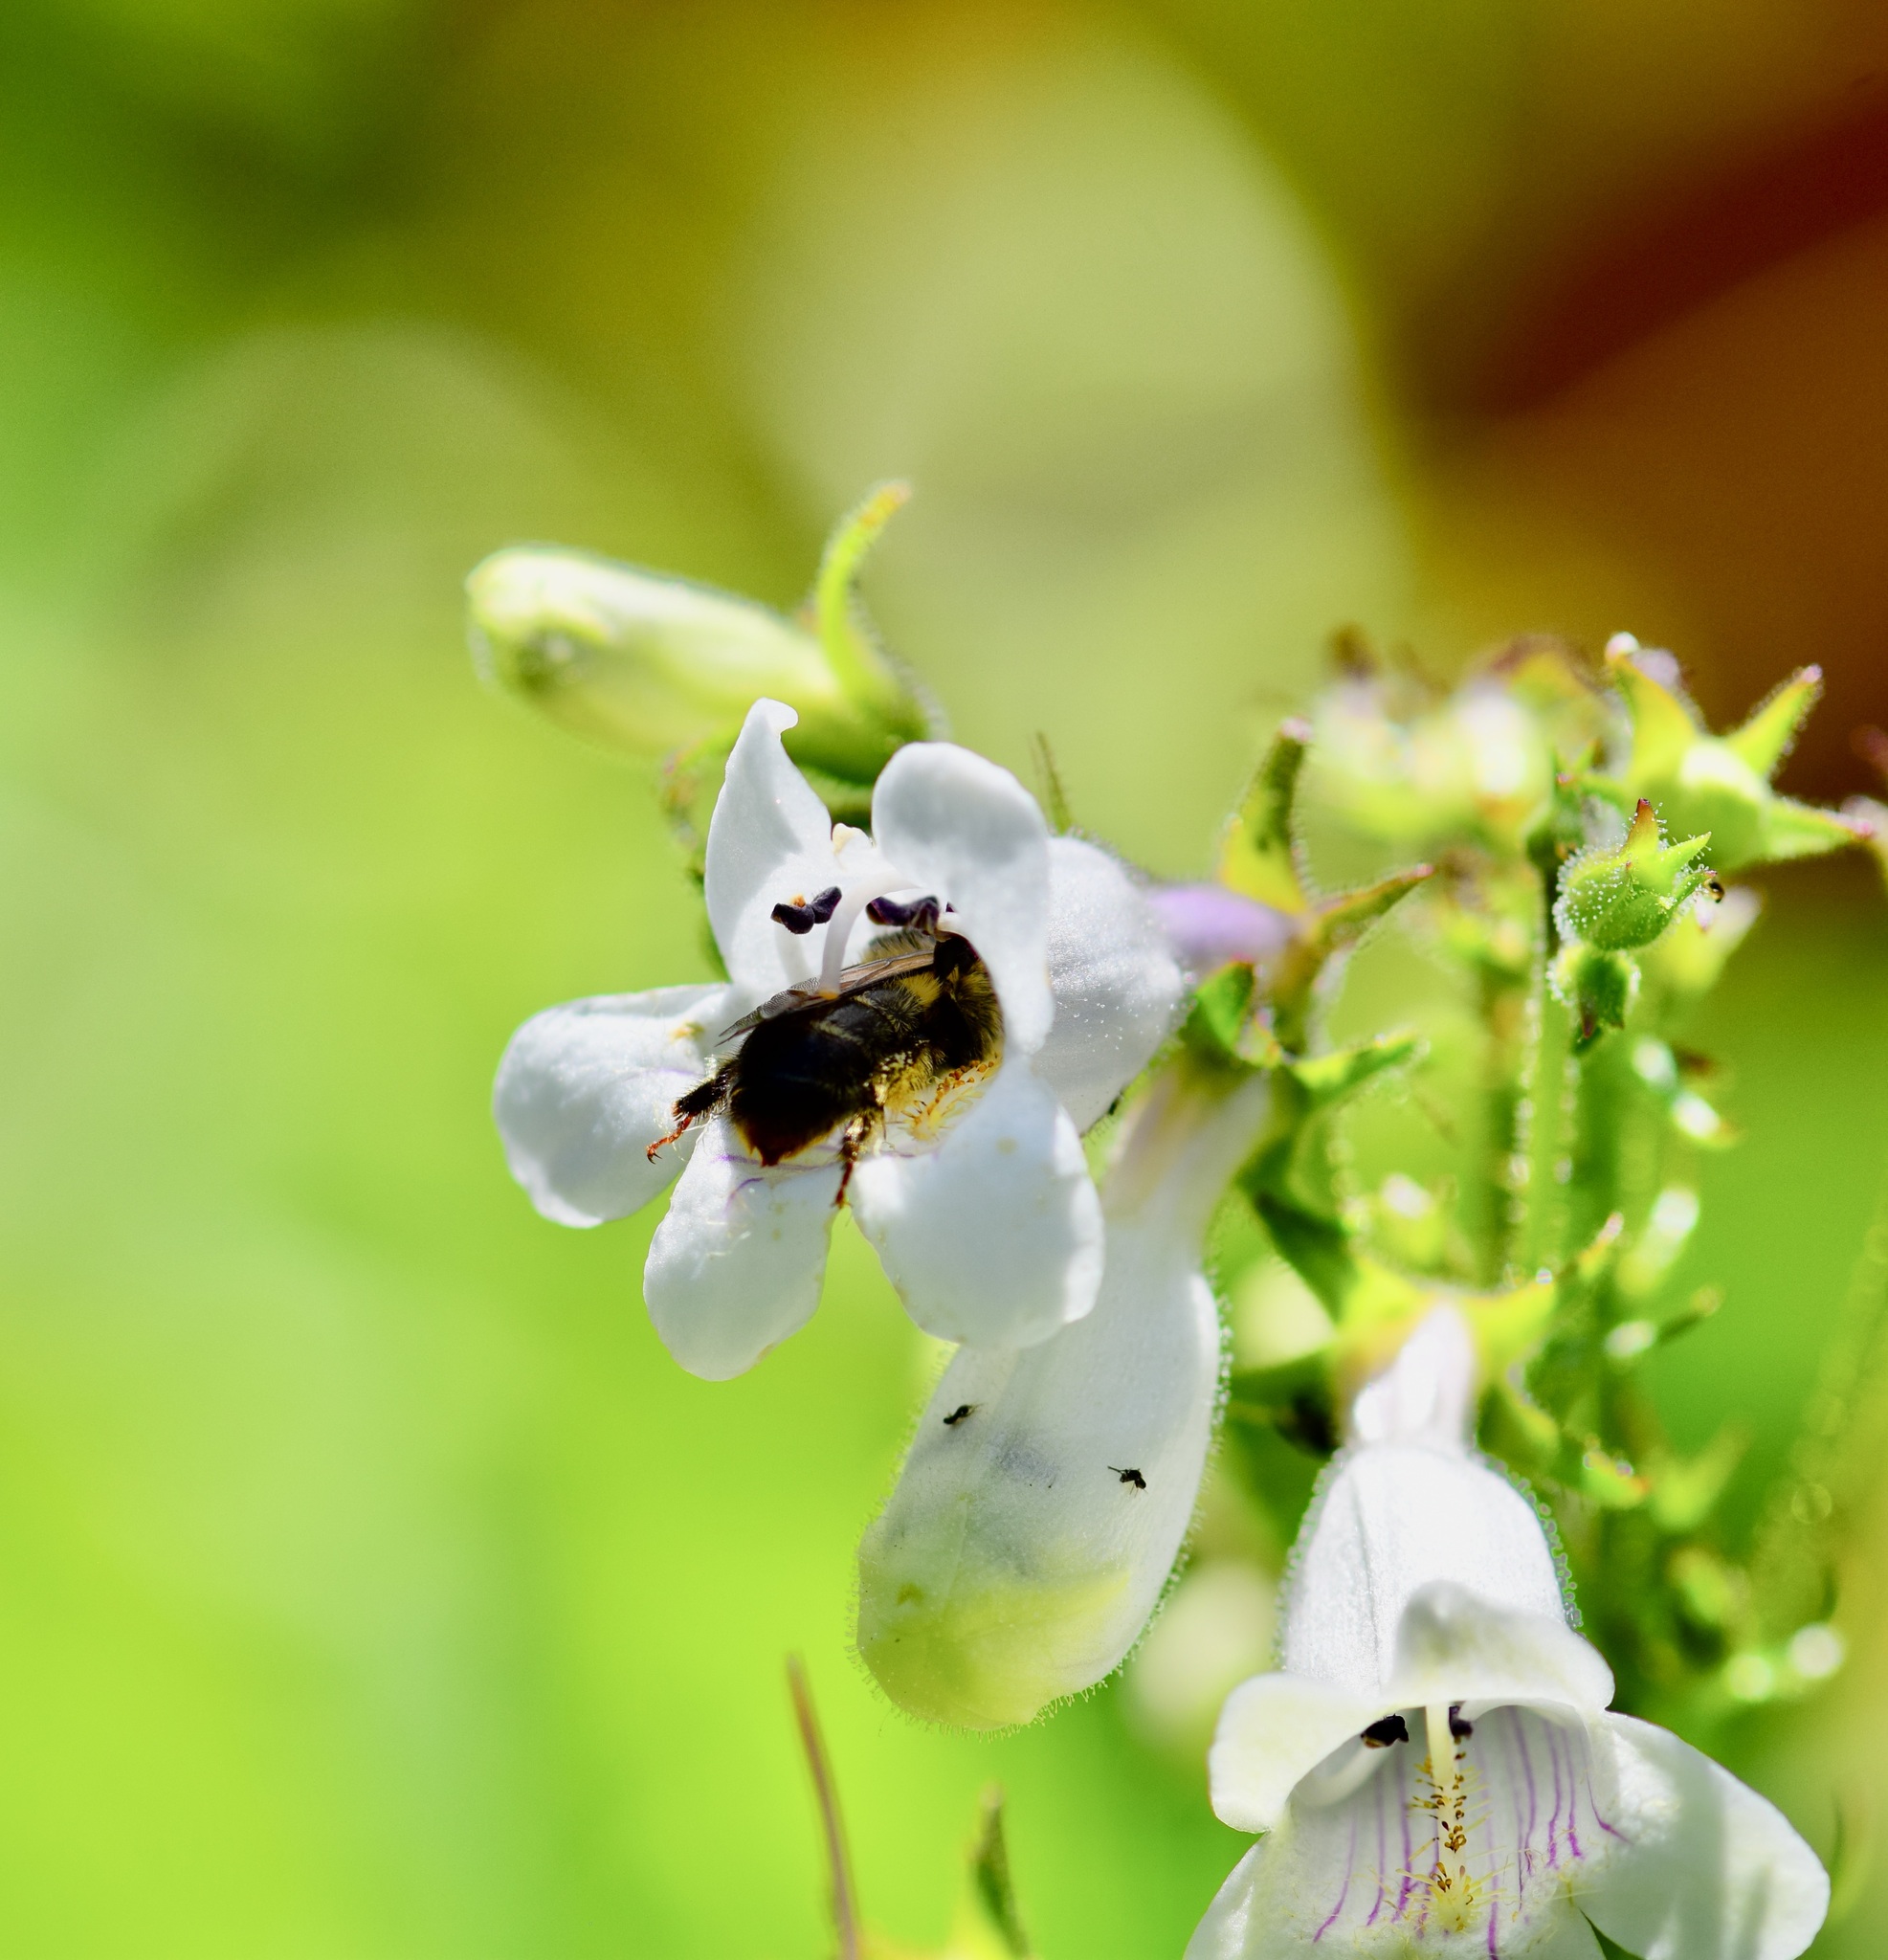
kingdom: Animalia
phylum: Arthropoda
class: Insecta
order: Hymenoptera
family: Apidae
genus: Anthophora
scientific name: Anthophora terminalis
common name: Orange-tipped wood-digger bee
